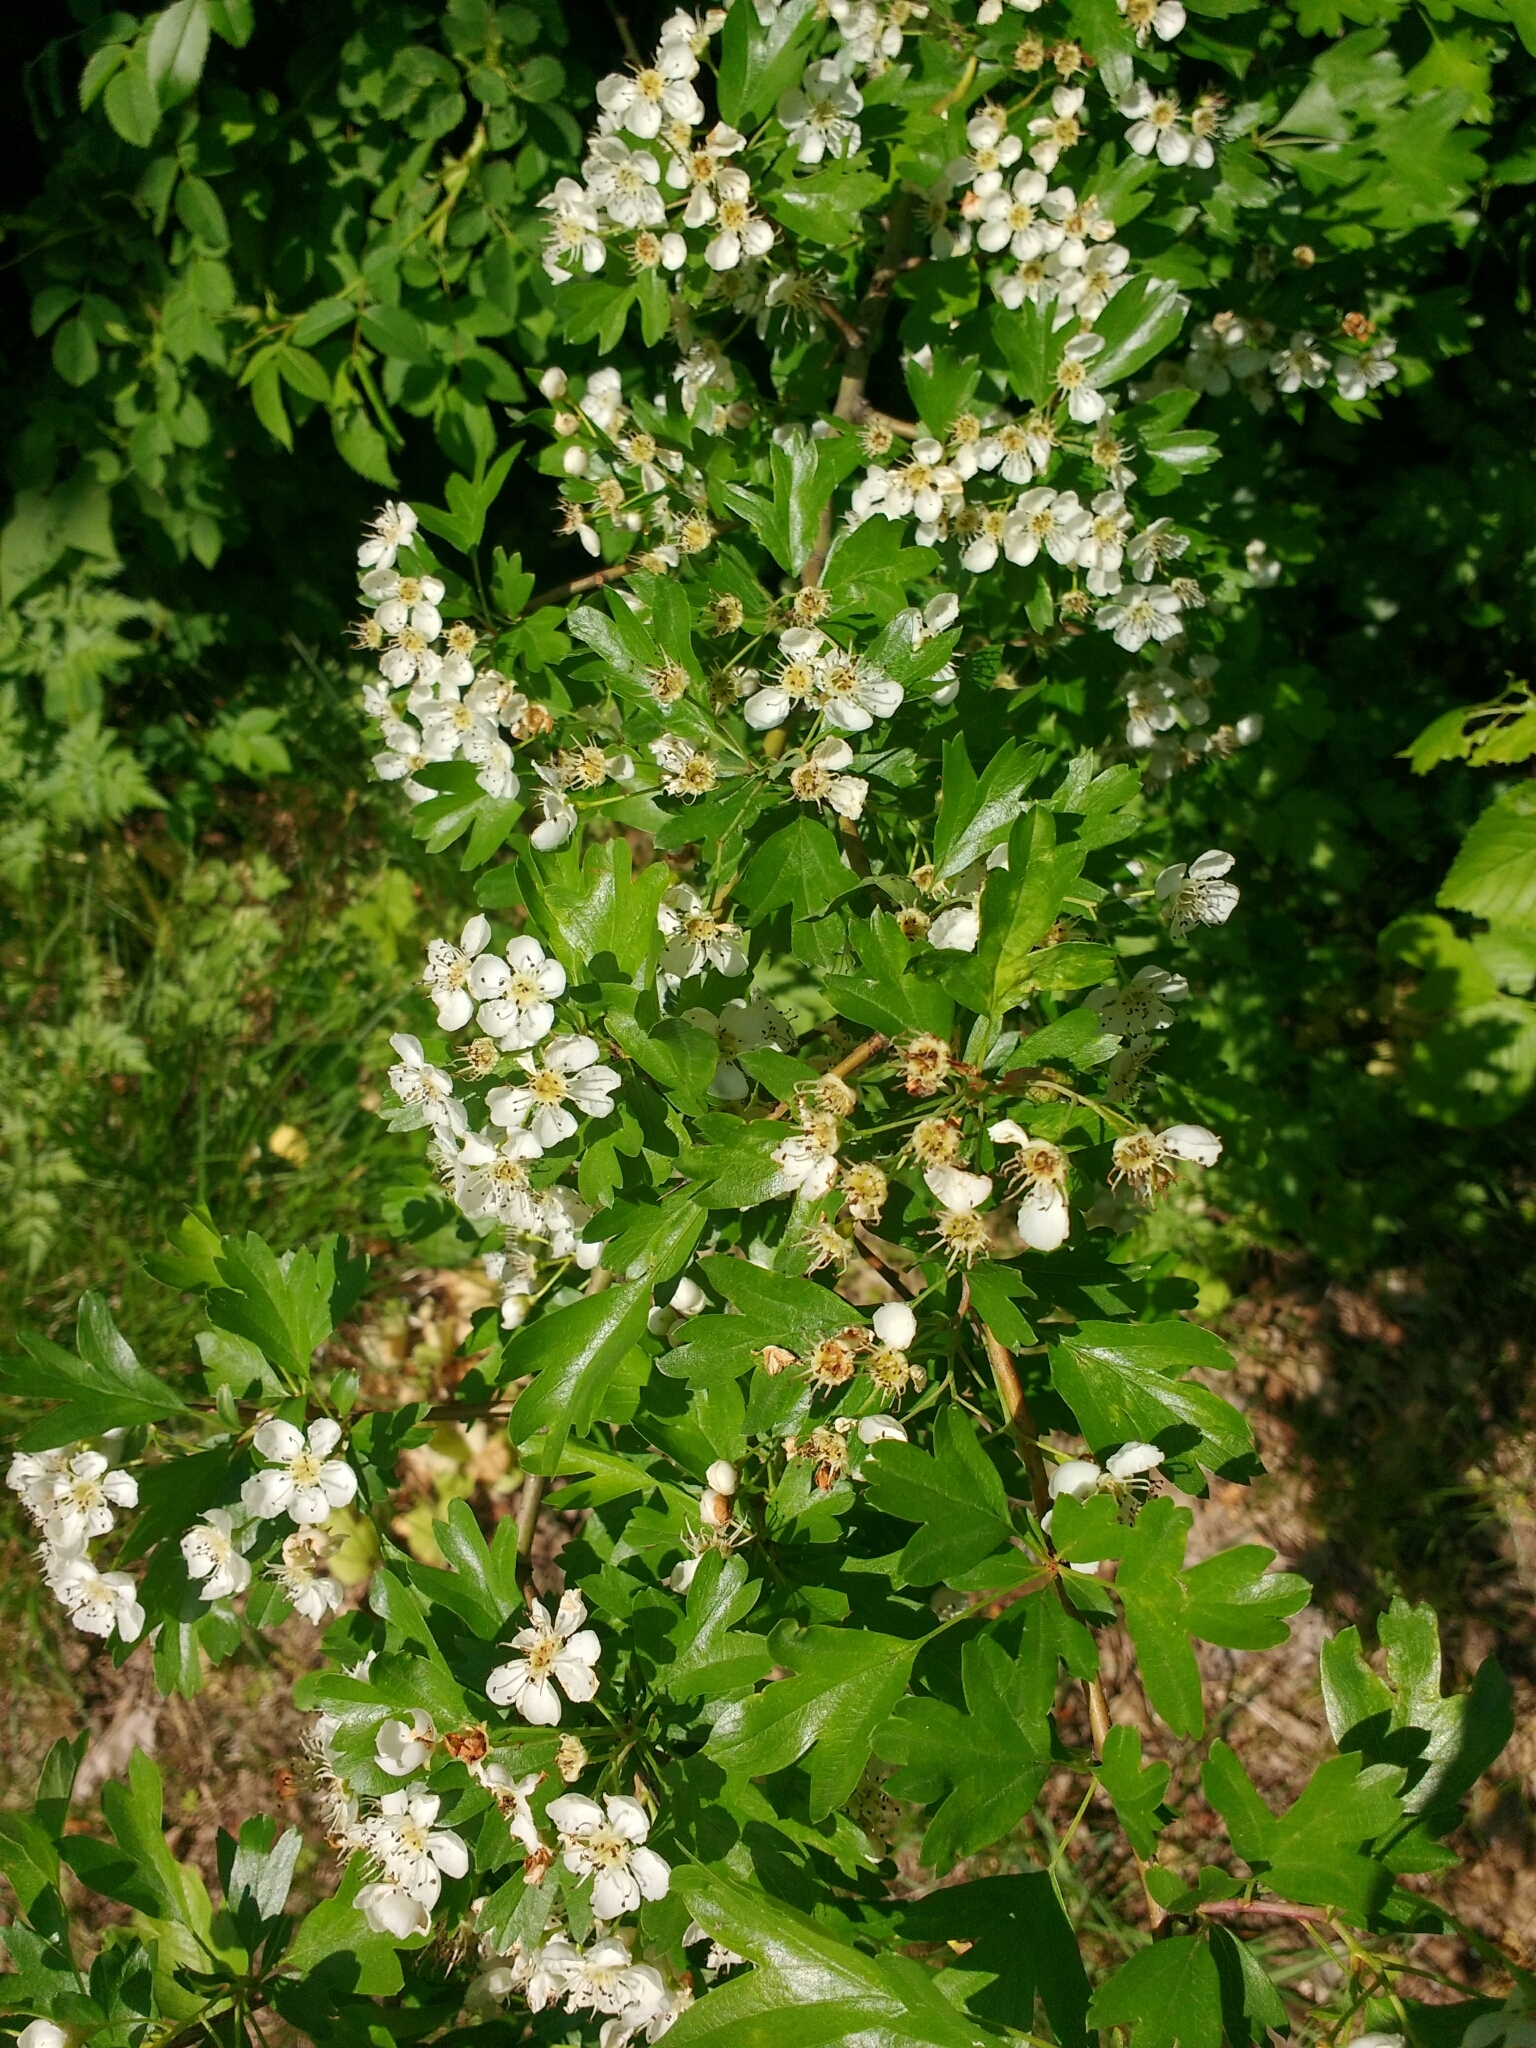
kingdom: Plantae
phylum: Tracheophyta
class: Magnoliopsida
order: Rosales
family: Rosaceae
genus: Crataegus
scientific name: Crataegus monogyna
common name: Hawthorn
